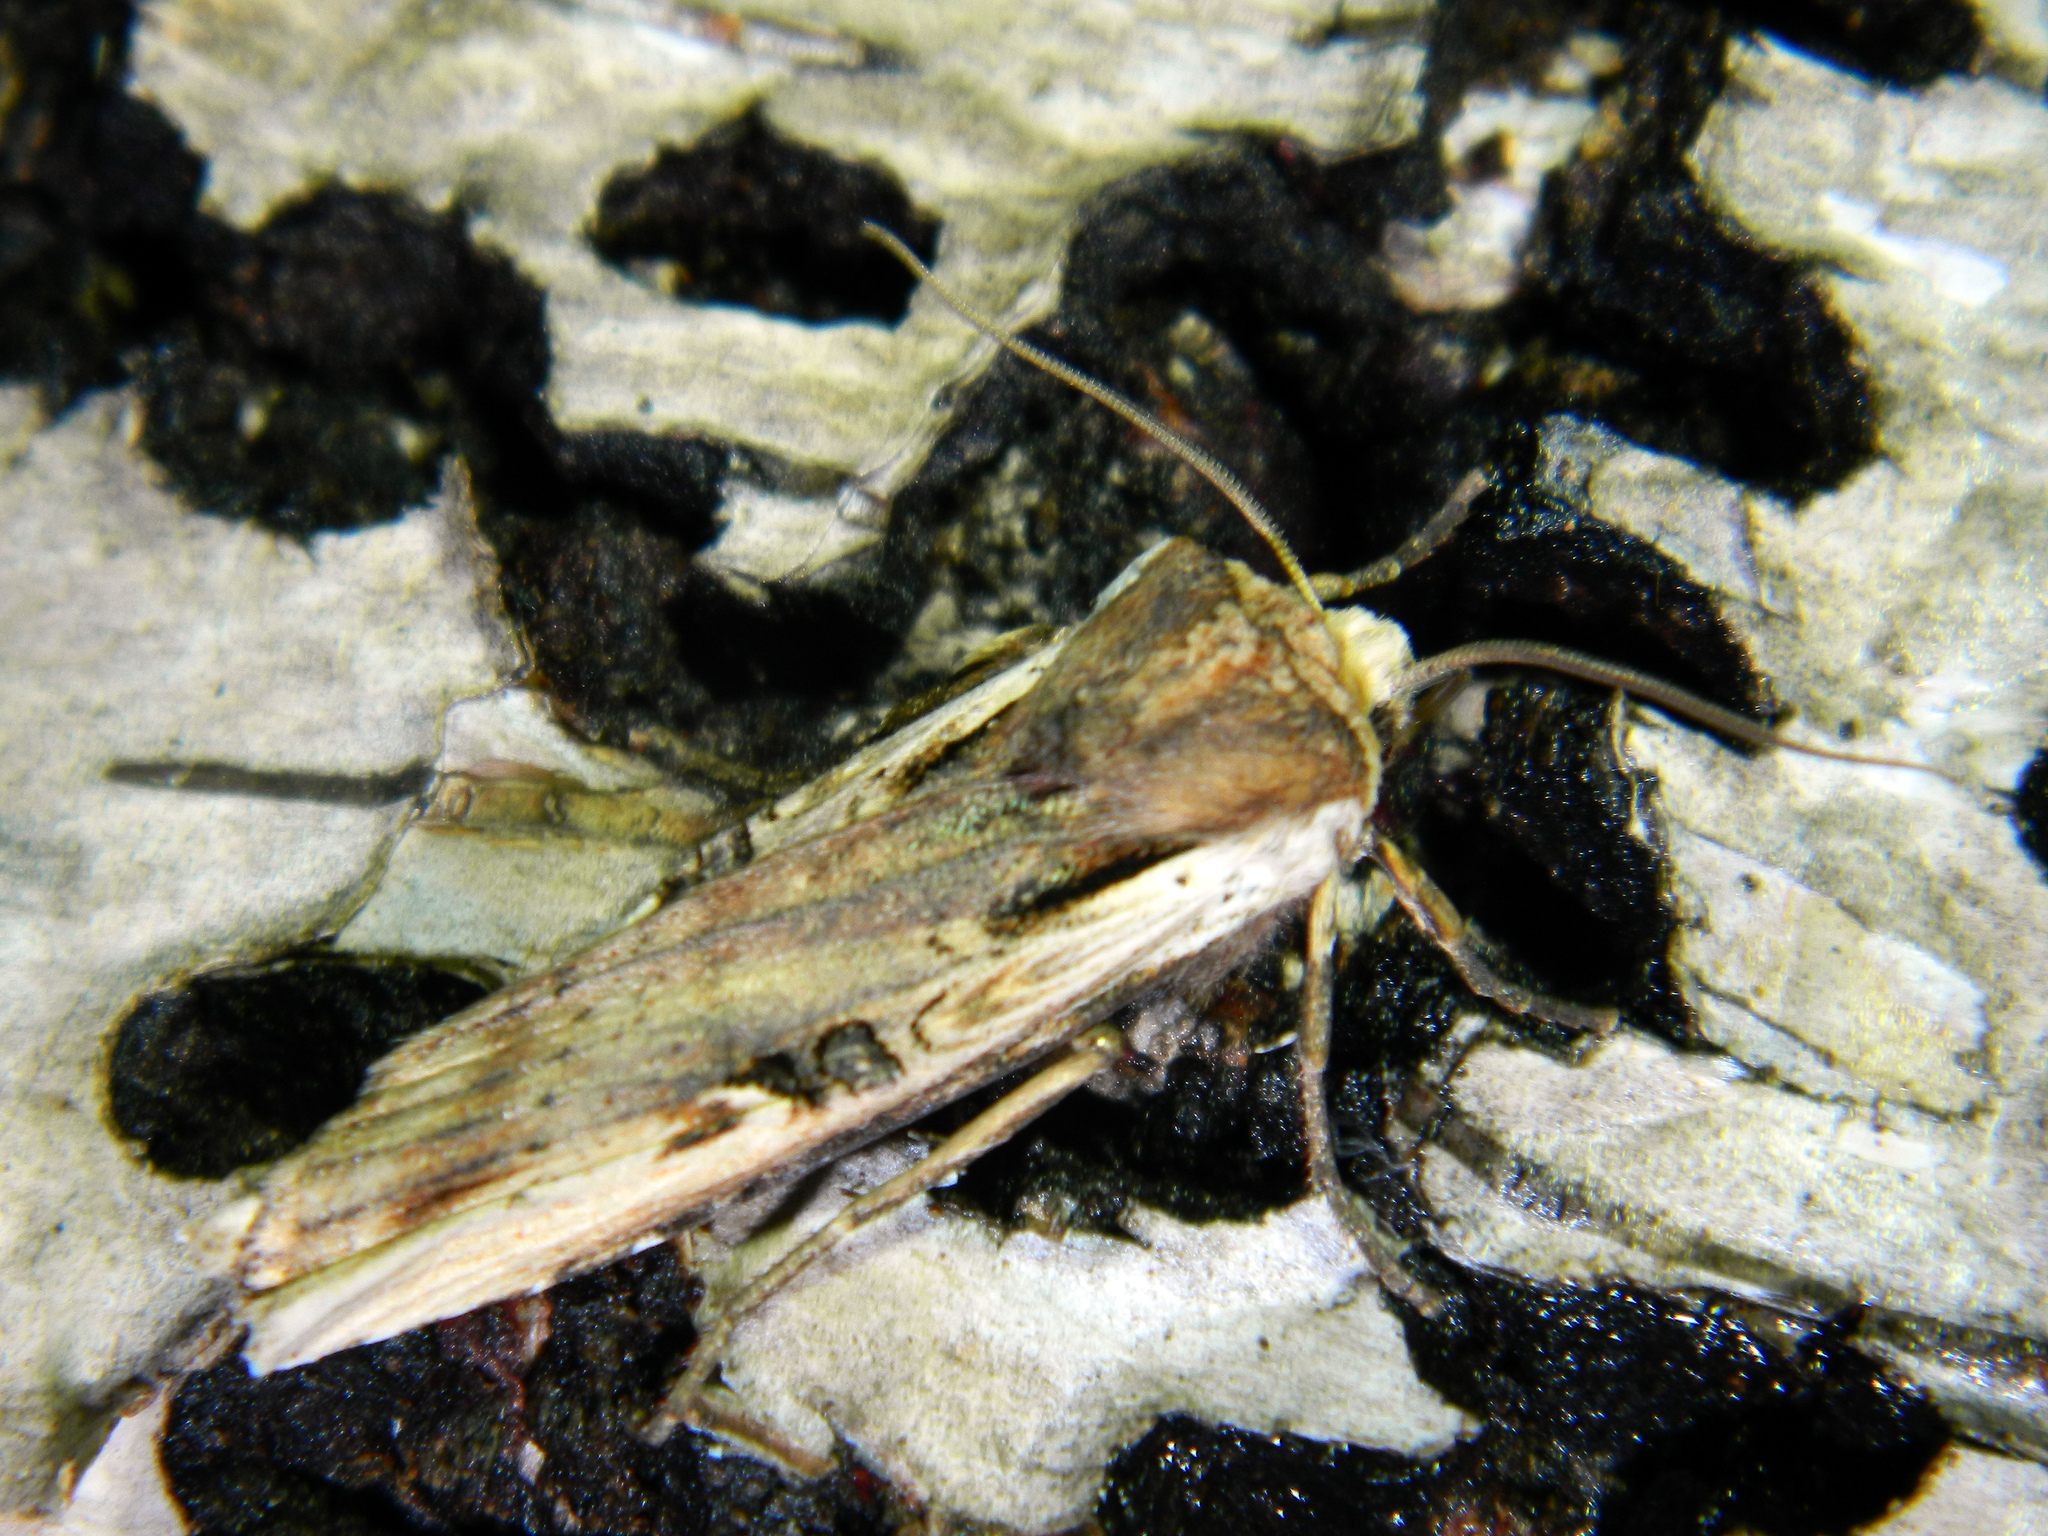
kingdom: Animalia
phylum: Arthropoda
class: Insecta
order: Lepidoptera
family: Noctuidae
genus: Xylena
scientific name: Xylena curvimacula
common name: Dot-and-dash swordgrass moth
